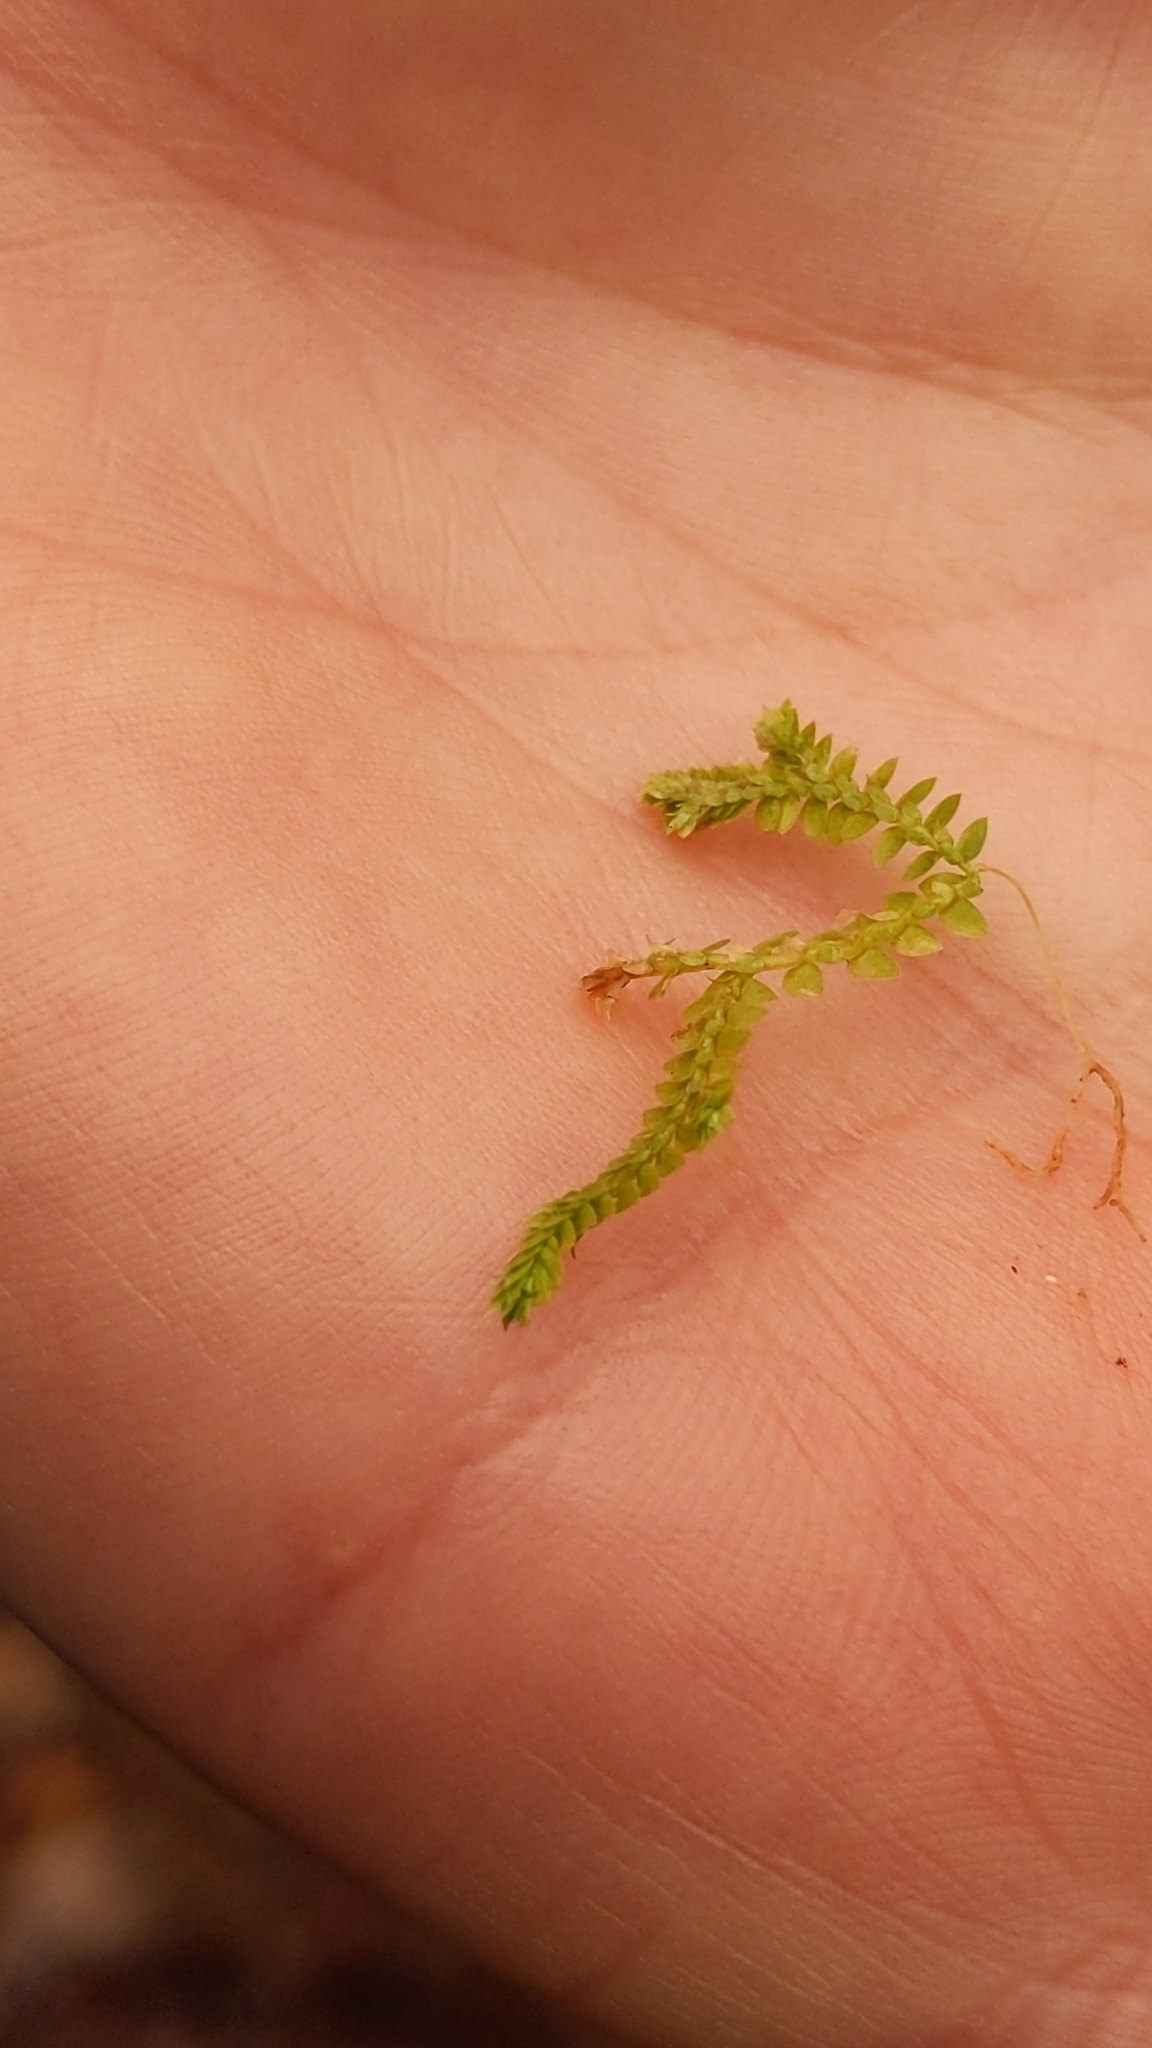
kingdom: Plantae
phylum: Tracheophyta
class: Lycopodiopsida
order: Selaginellales
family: Selaginellaceae
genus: Selaginella
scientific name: Selaginella apoda
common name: Creeping spikemoss
